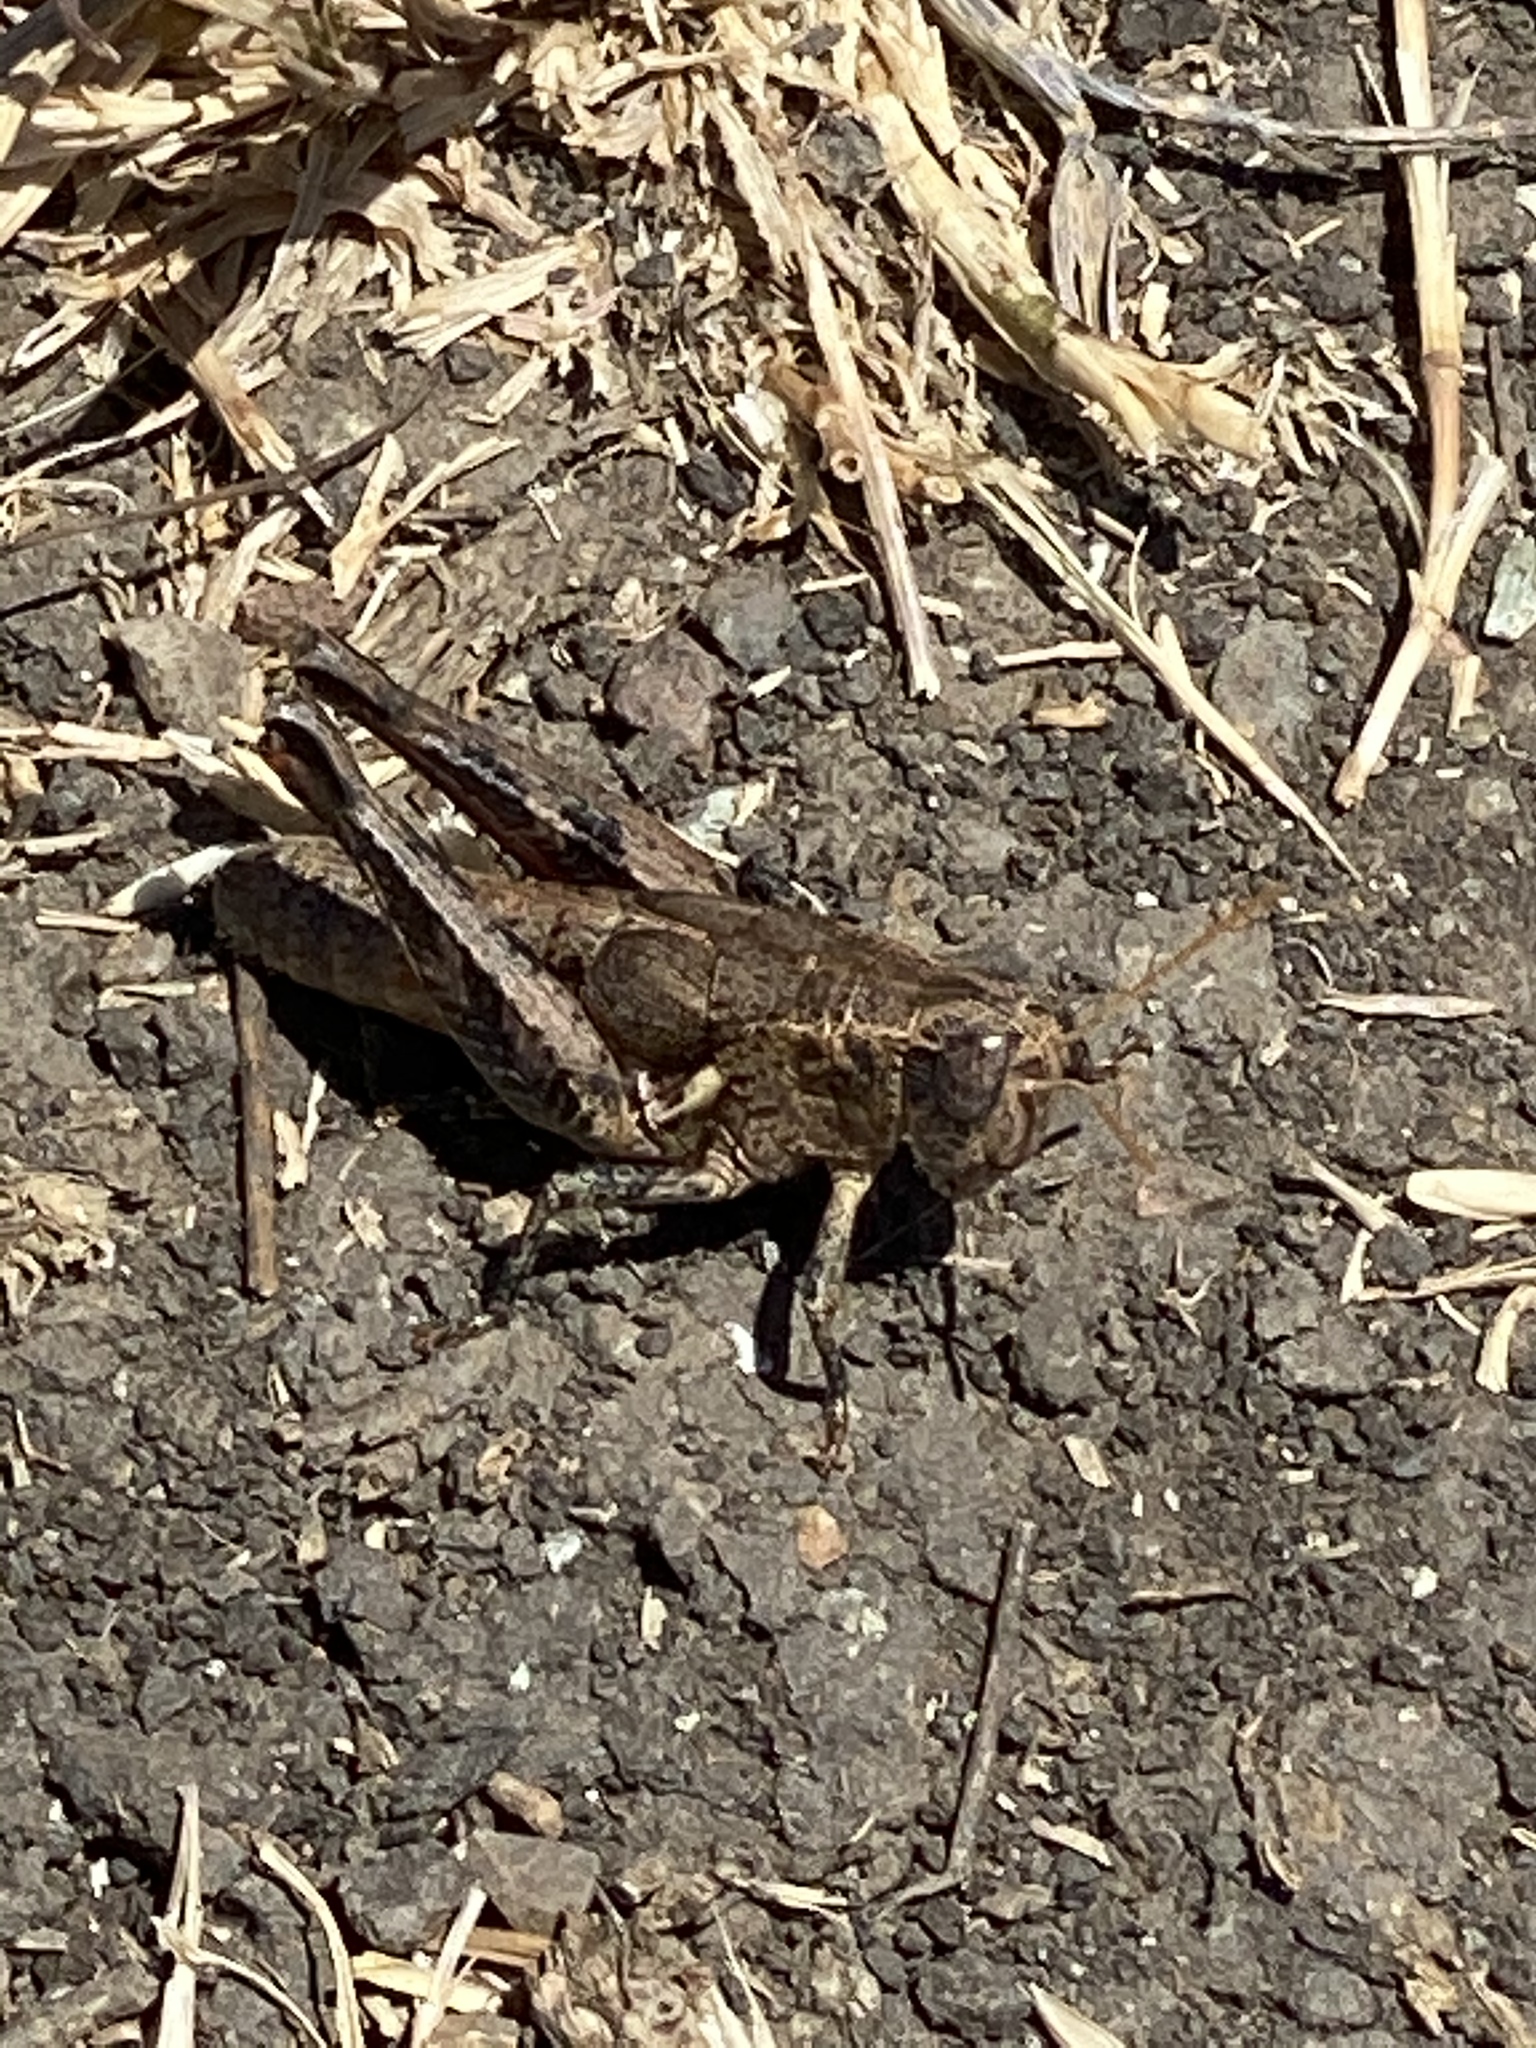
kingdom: Animalia
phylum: Arthropoda
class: Insecta
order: Orthoptera
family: Acrididae
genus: Oedaleonotus
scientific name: Oedaleonotus borckii
